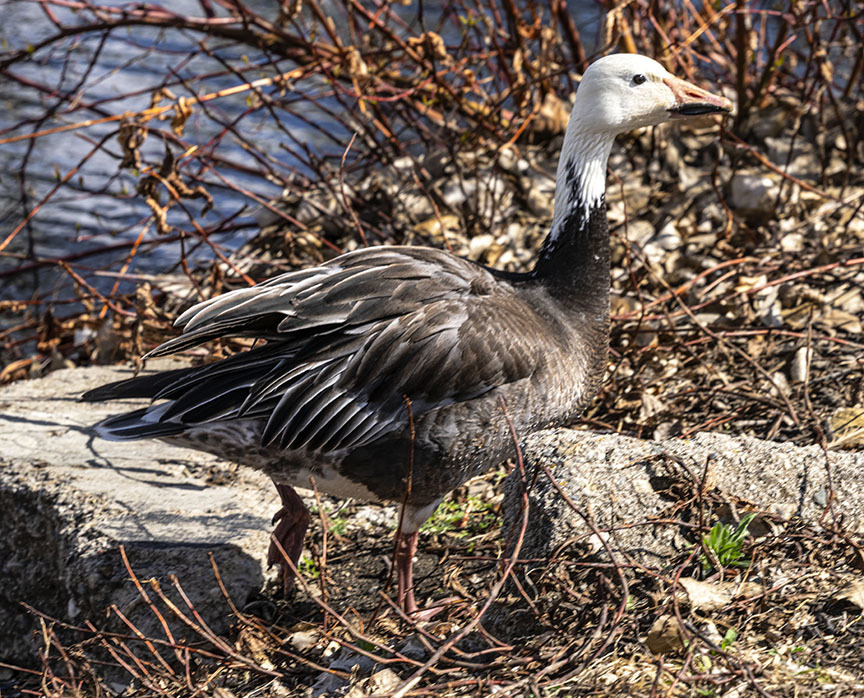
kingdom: Animalia
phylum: Chordata
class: Aves
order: Anseriformes
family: Anatidae
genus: Anser
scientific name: Anser caerulescens
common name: Snow goose
